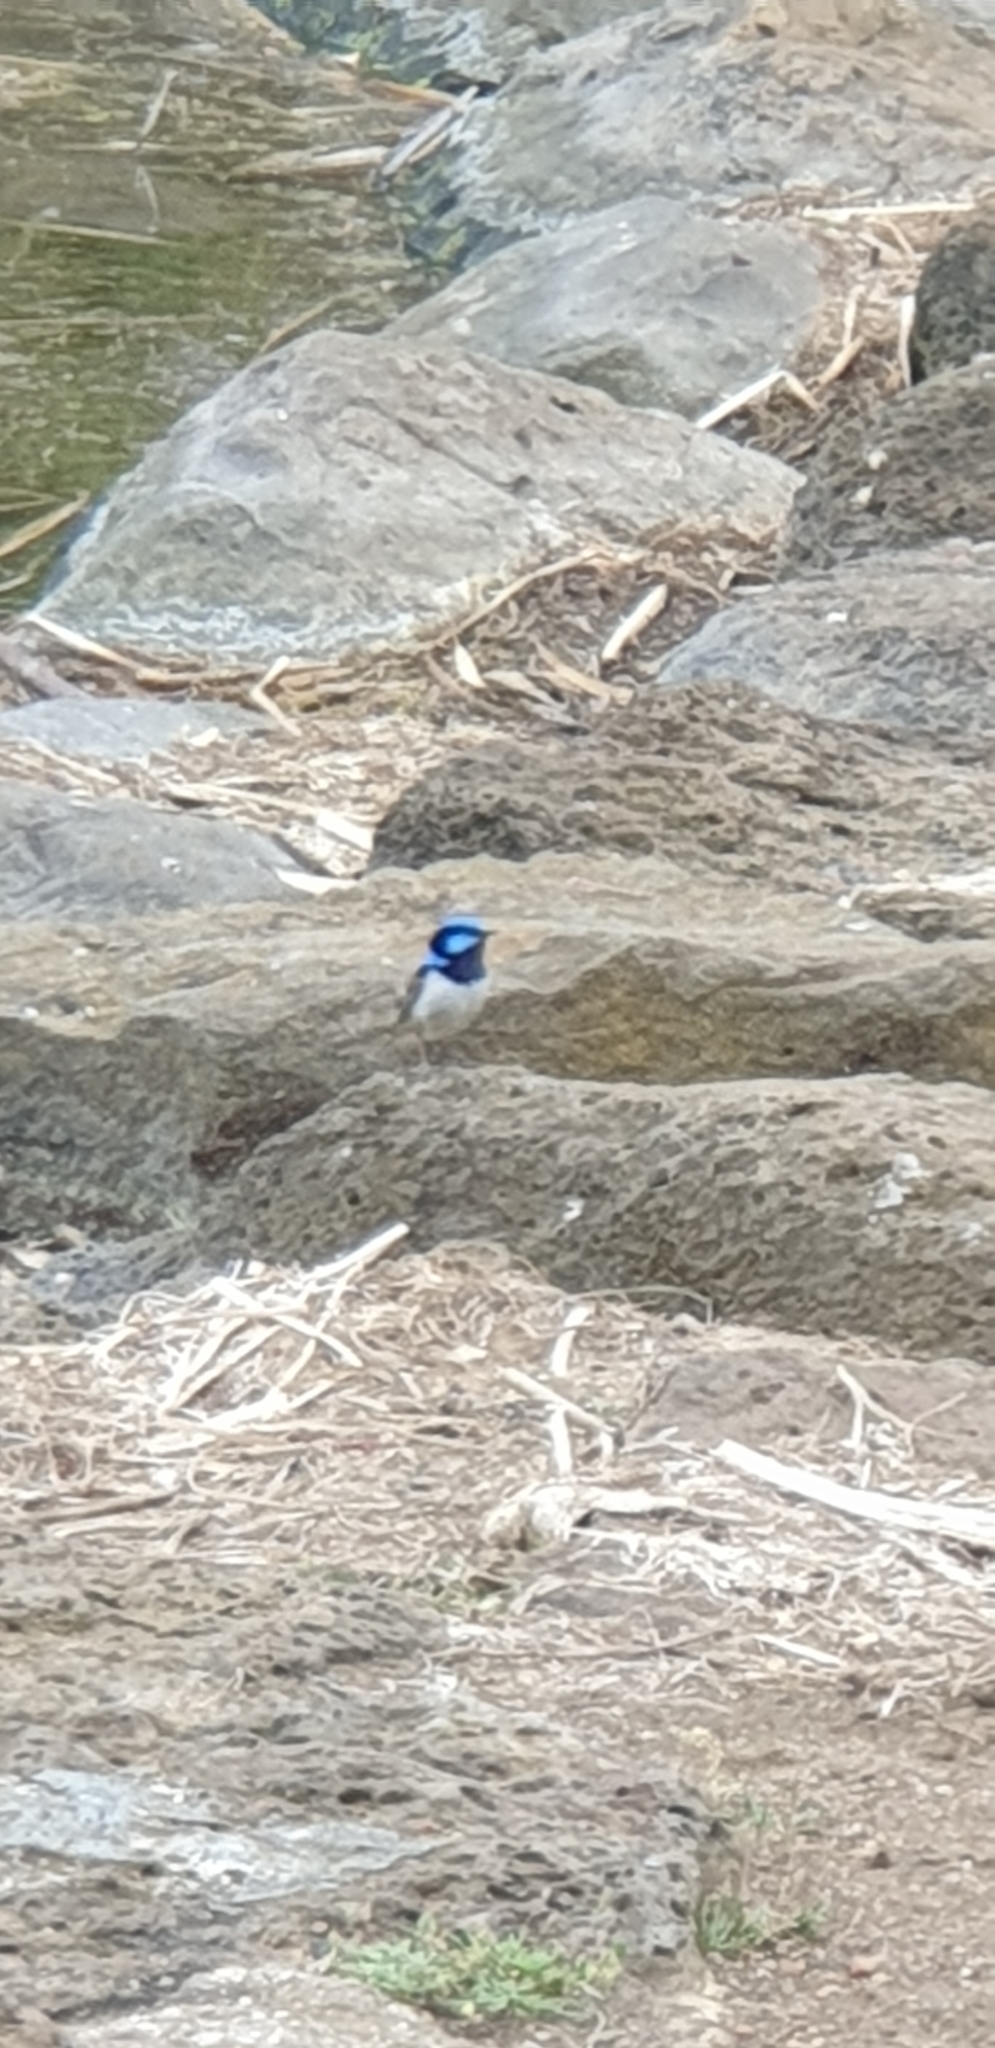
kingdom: Animalia
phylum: Chordata
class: Aves
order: Passeriformes
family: Maluridae
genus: Malurus
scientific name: Malurus cyaneus
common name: Superb fairywren
